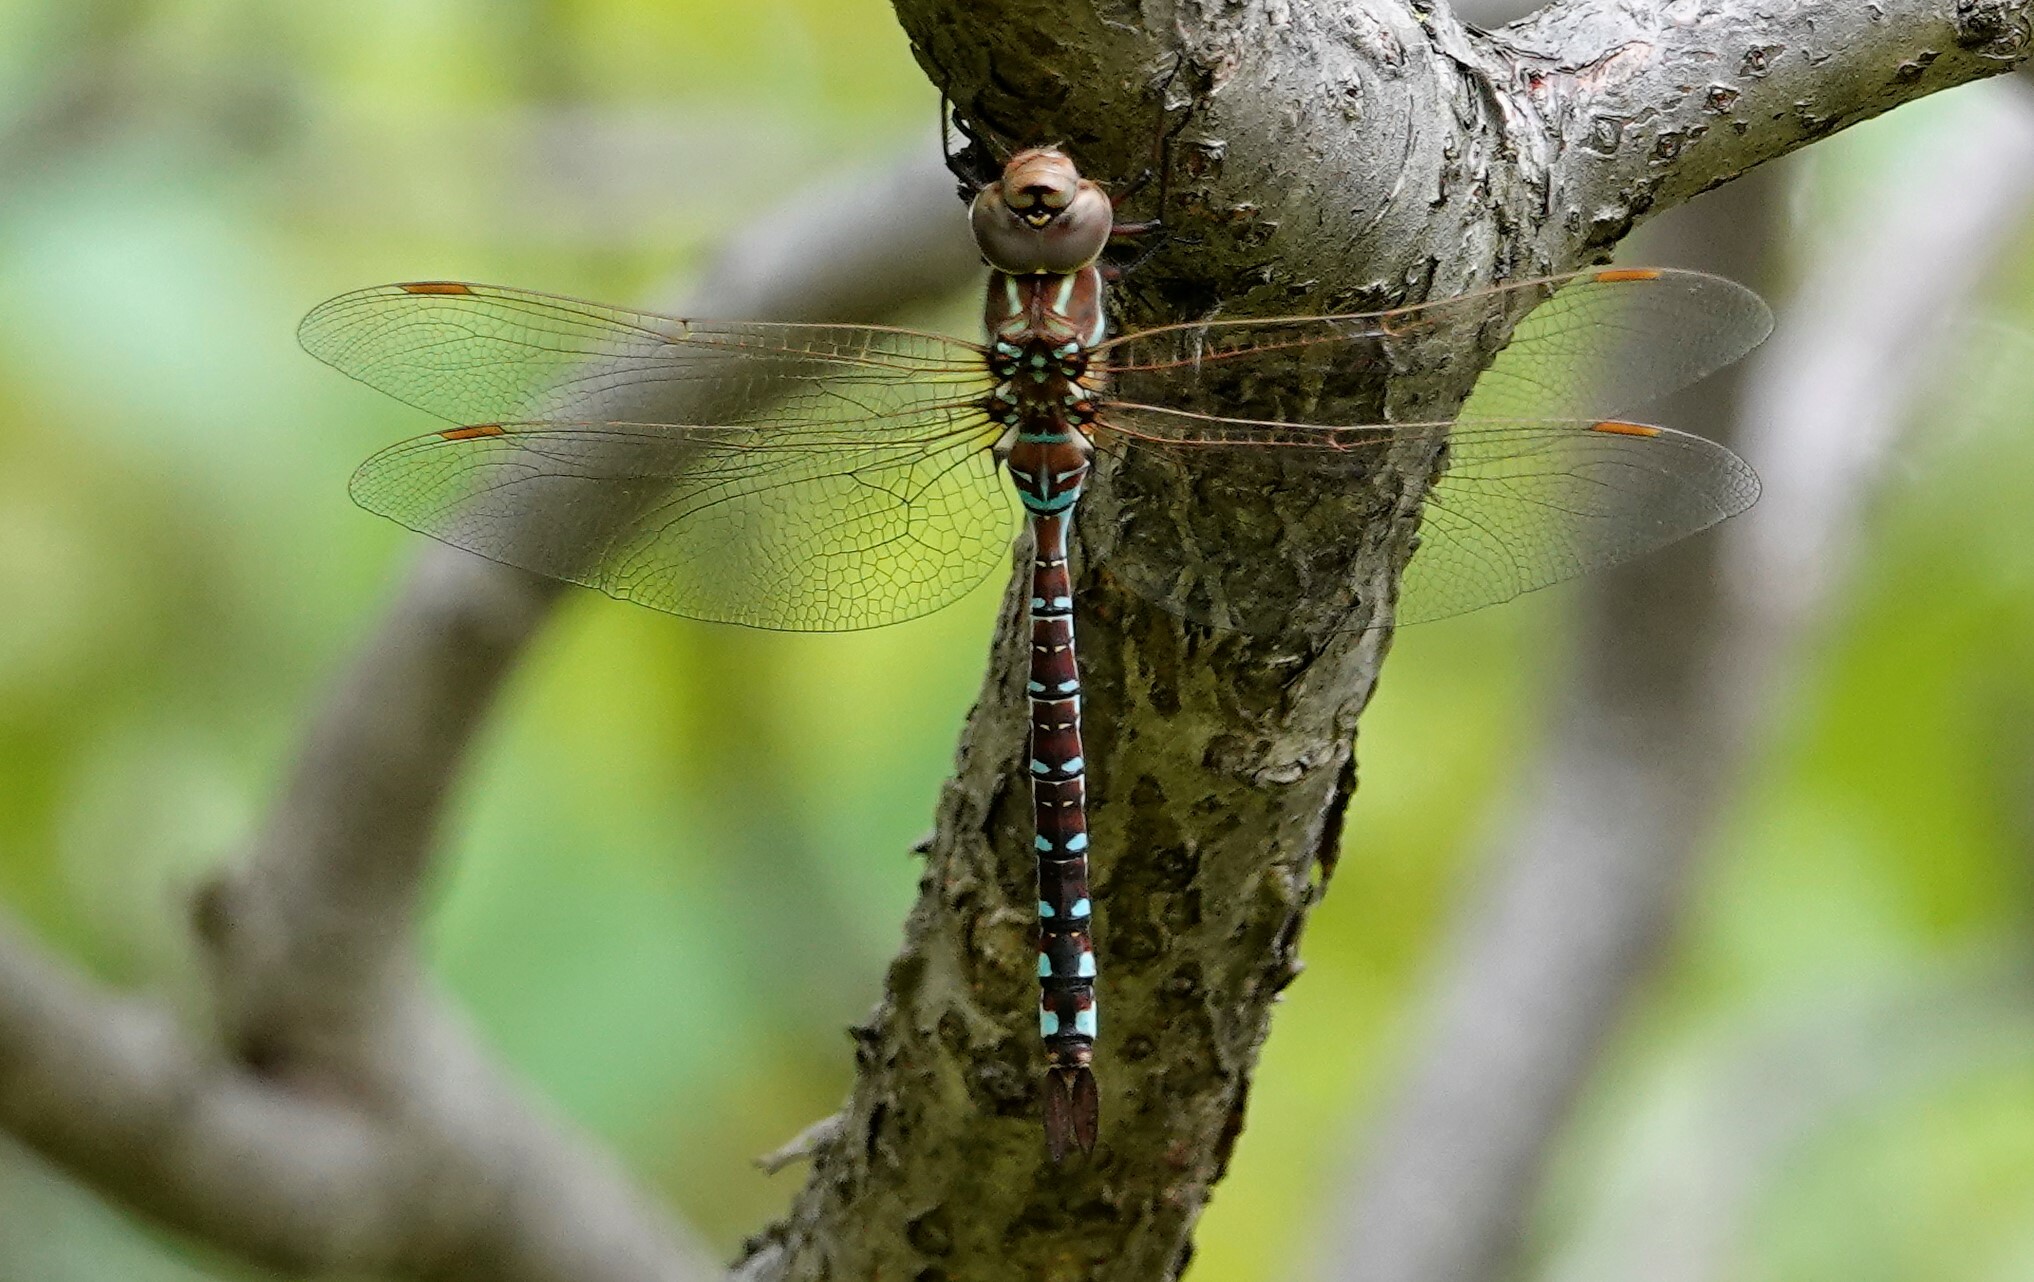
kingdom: Animalia
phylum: Arthropoda
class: Insecta
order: Odonata
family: Aeshnidae
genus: Aeshna
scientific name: Aeshna constricta
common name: Lance-tipped darner
